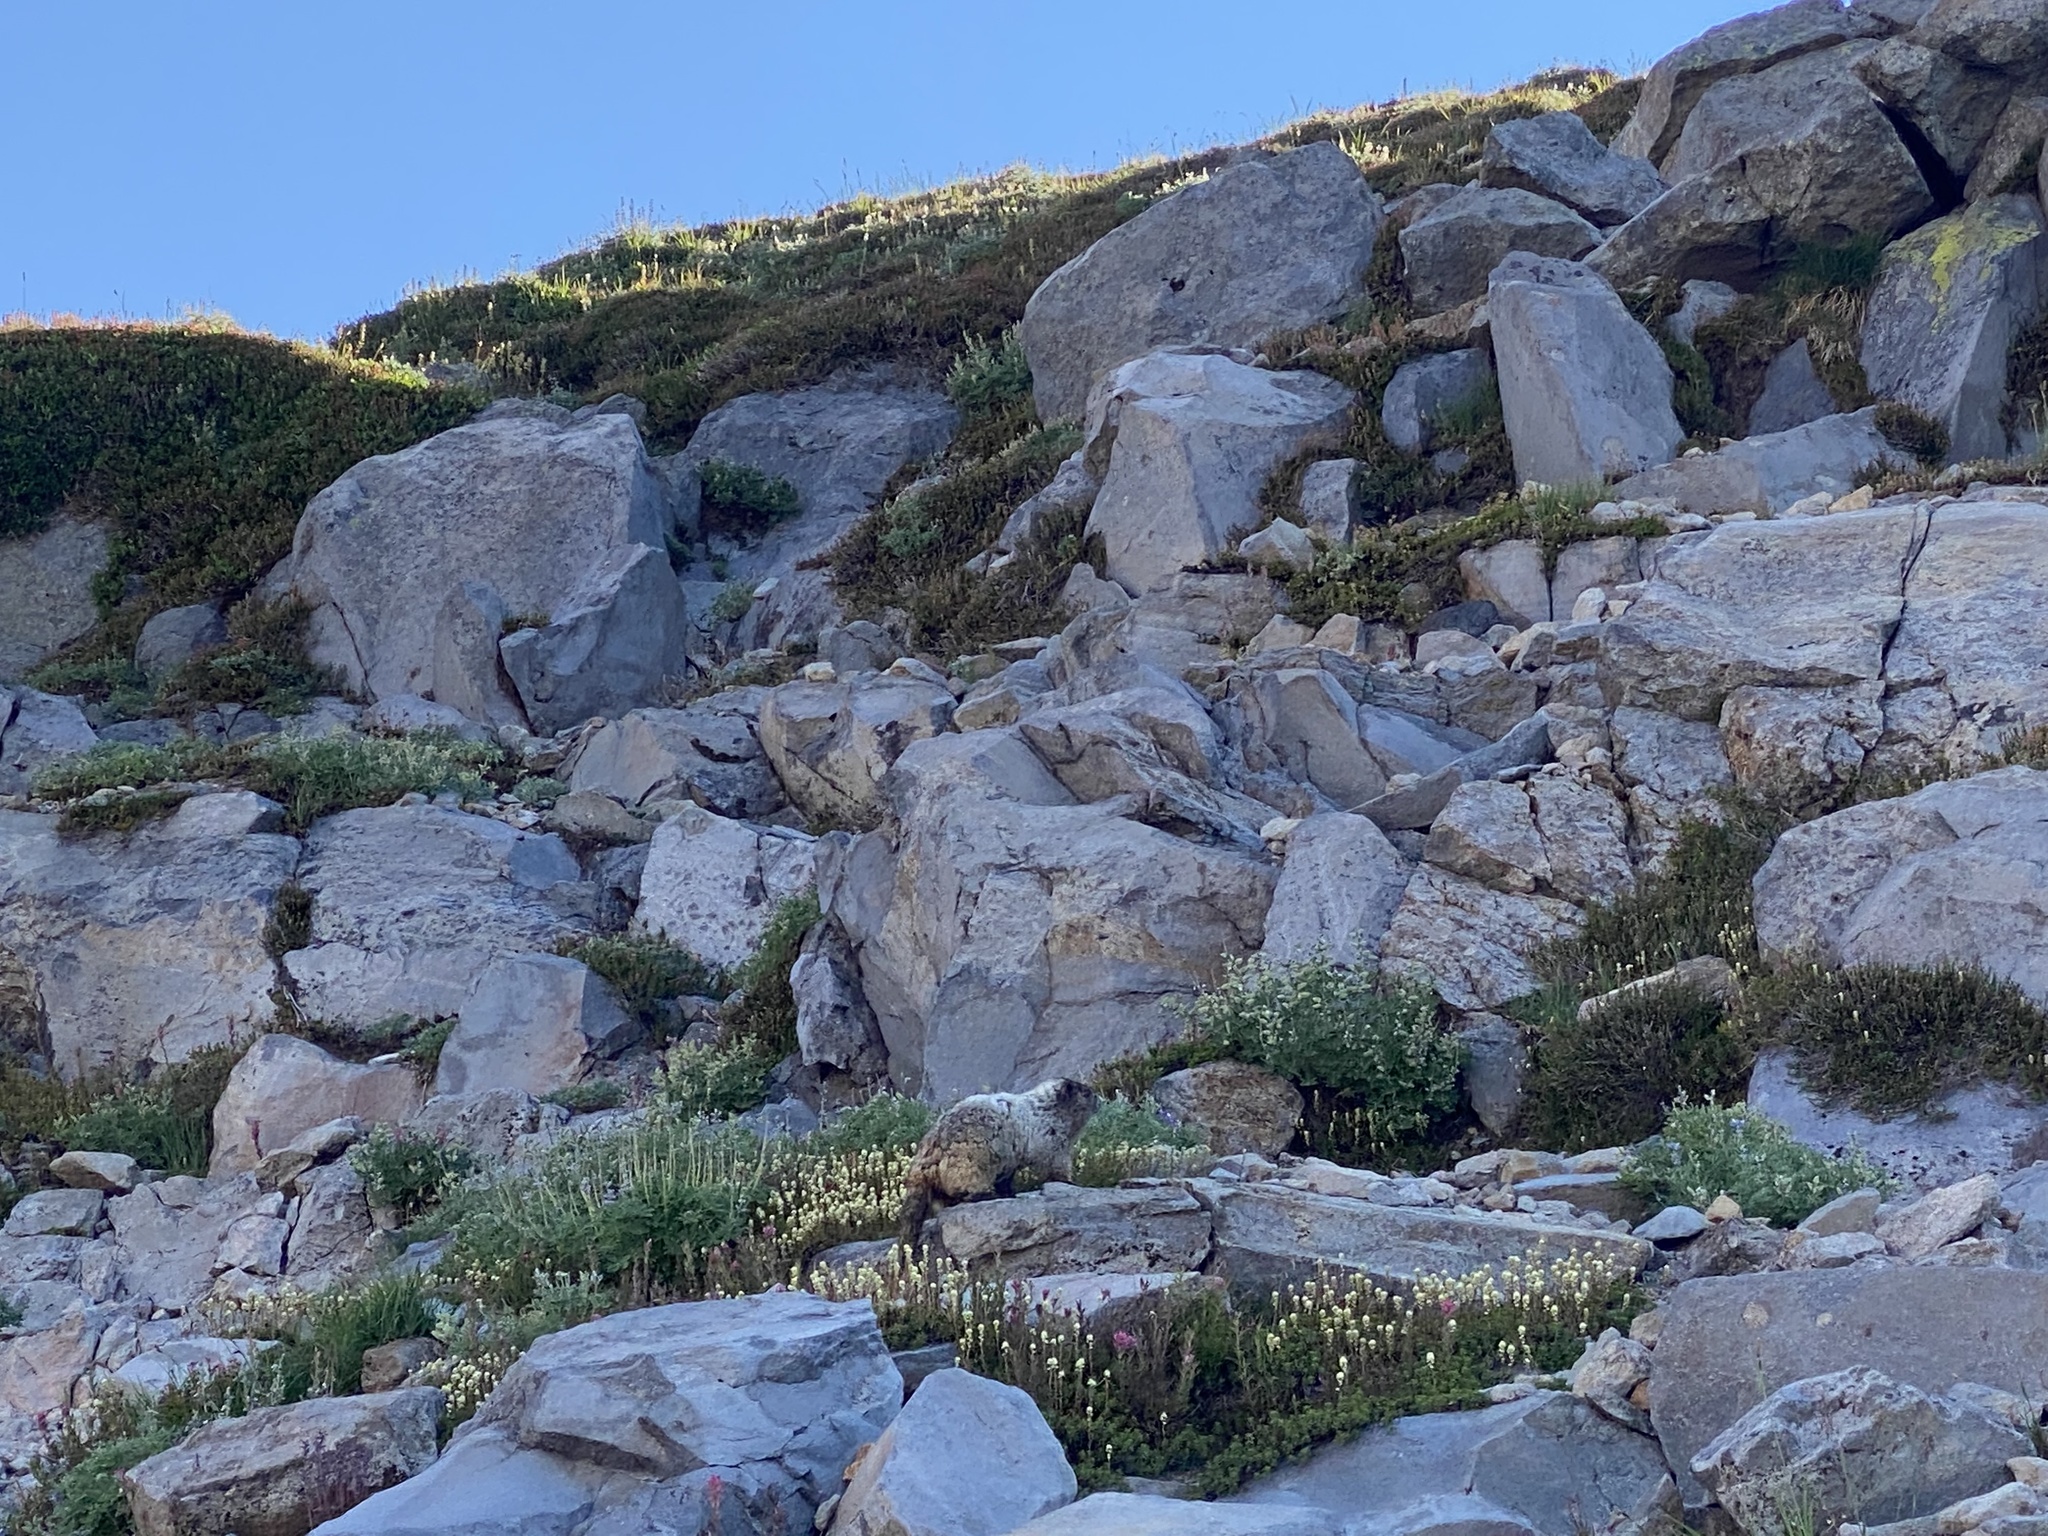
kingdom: Animalia
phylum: Chordata
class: Mammalia
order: Rodentia
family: Sciuridae
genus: Marmota
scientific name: Marmota caligata
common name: Hoary marmot
